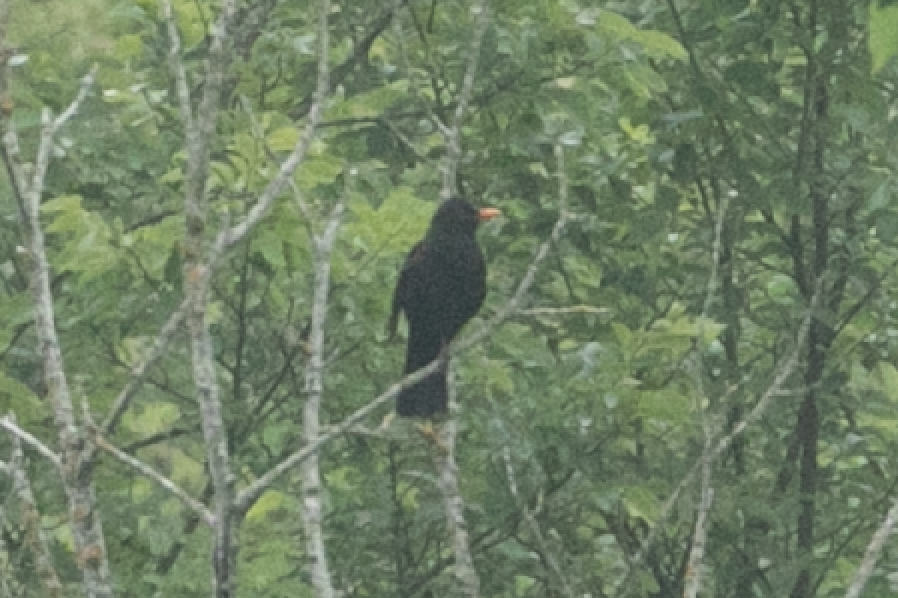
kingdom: Animalia
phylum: Chordata
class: Aves
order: Passeriformes
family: Turdidae
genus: Turdus
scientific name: Turdus merula
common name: Common blackbird
